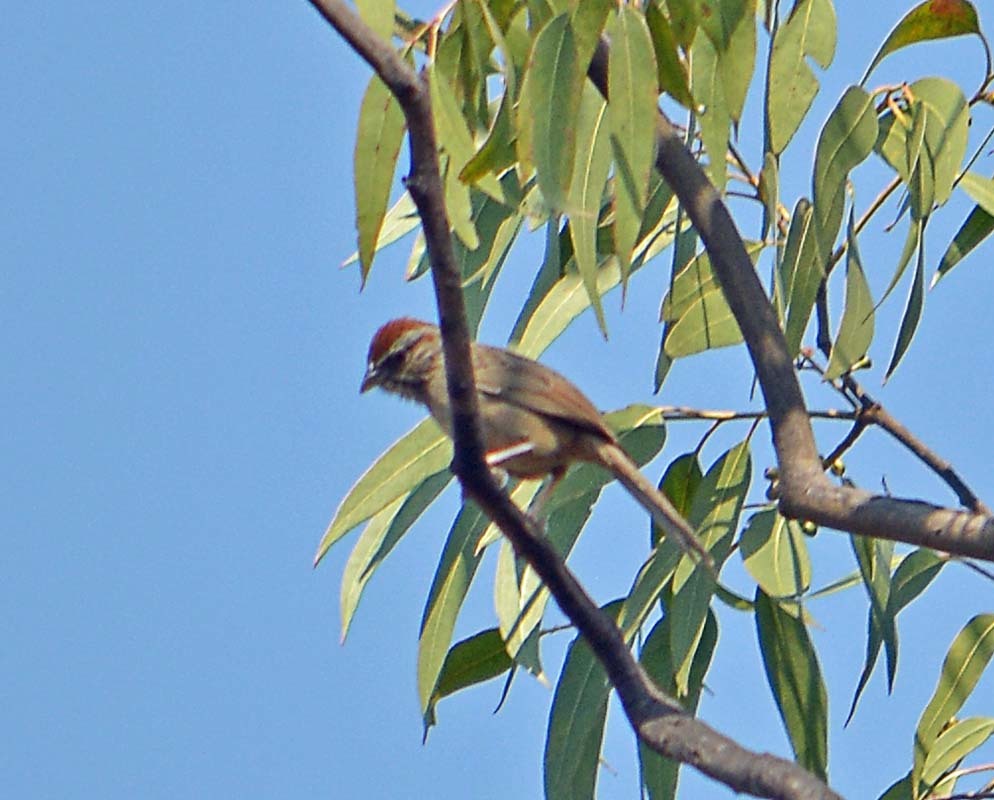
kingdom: Animalia
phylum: Chordata
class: Aves
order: Passeriformes
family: Passerellidae
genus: Aimophila
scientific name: Aimophila ruficeps
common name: Rufous-crowned sparrow
